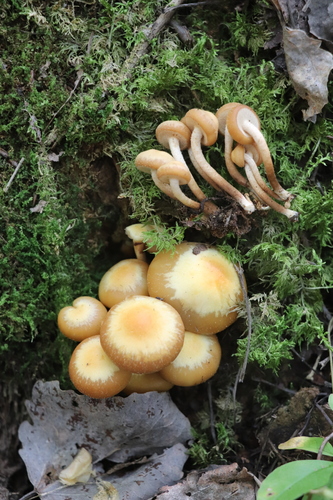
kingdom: Fungi
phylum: Basidiomycota
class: Agaricomycetes
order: Agaricales
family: Strophariaceae
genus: Kuehneromyces
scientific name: Kuehneromyces mutabilis
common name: Sheathed woodtuft
